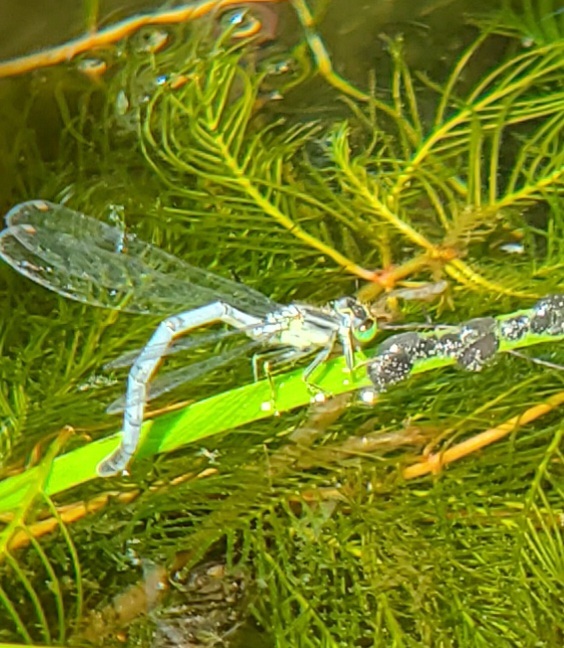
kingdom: Animalia
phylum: Arthropoda
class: Insecta
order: Odonata
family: Coenagrionidae
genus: Ischnura
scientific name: Ischnura verticalis
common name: Eastern forktail
